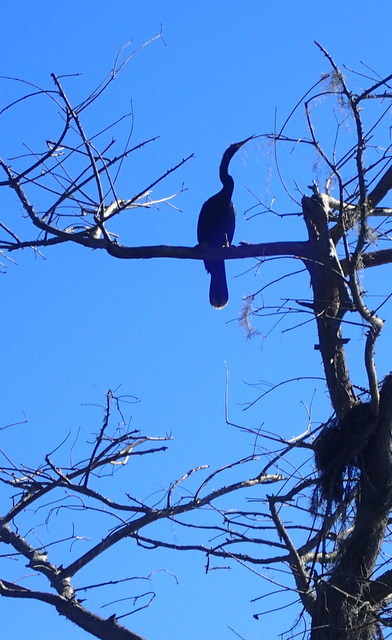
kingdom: Animalia
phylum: Chordata
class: Aves
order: Suliformes
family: Anhingidae
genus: Anhinga
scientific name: Anhinga anhinga
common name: Anhinga
